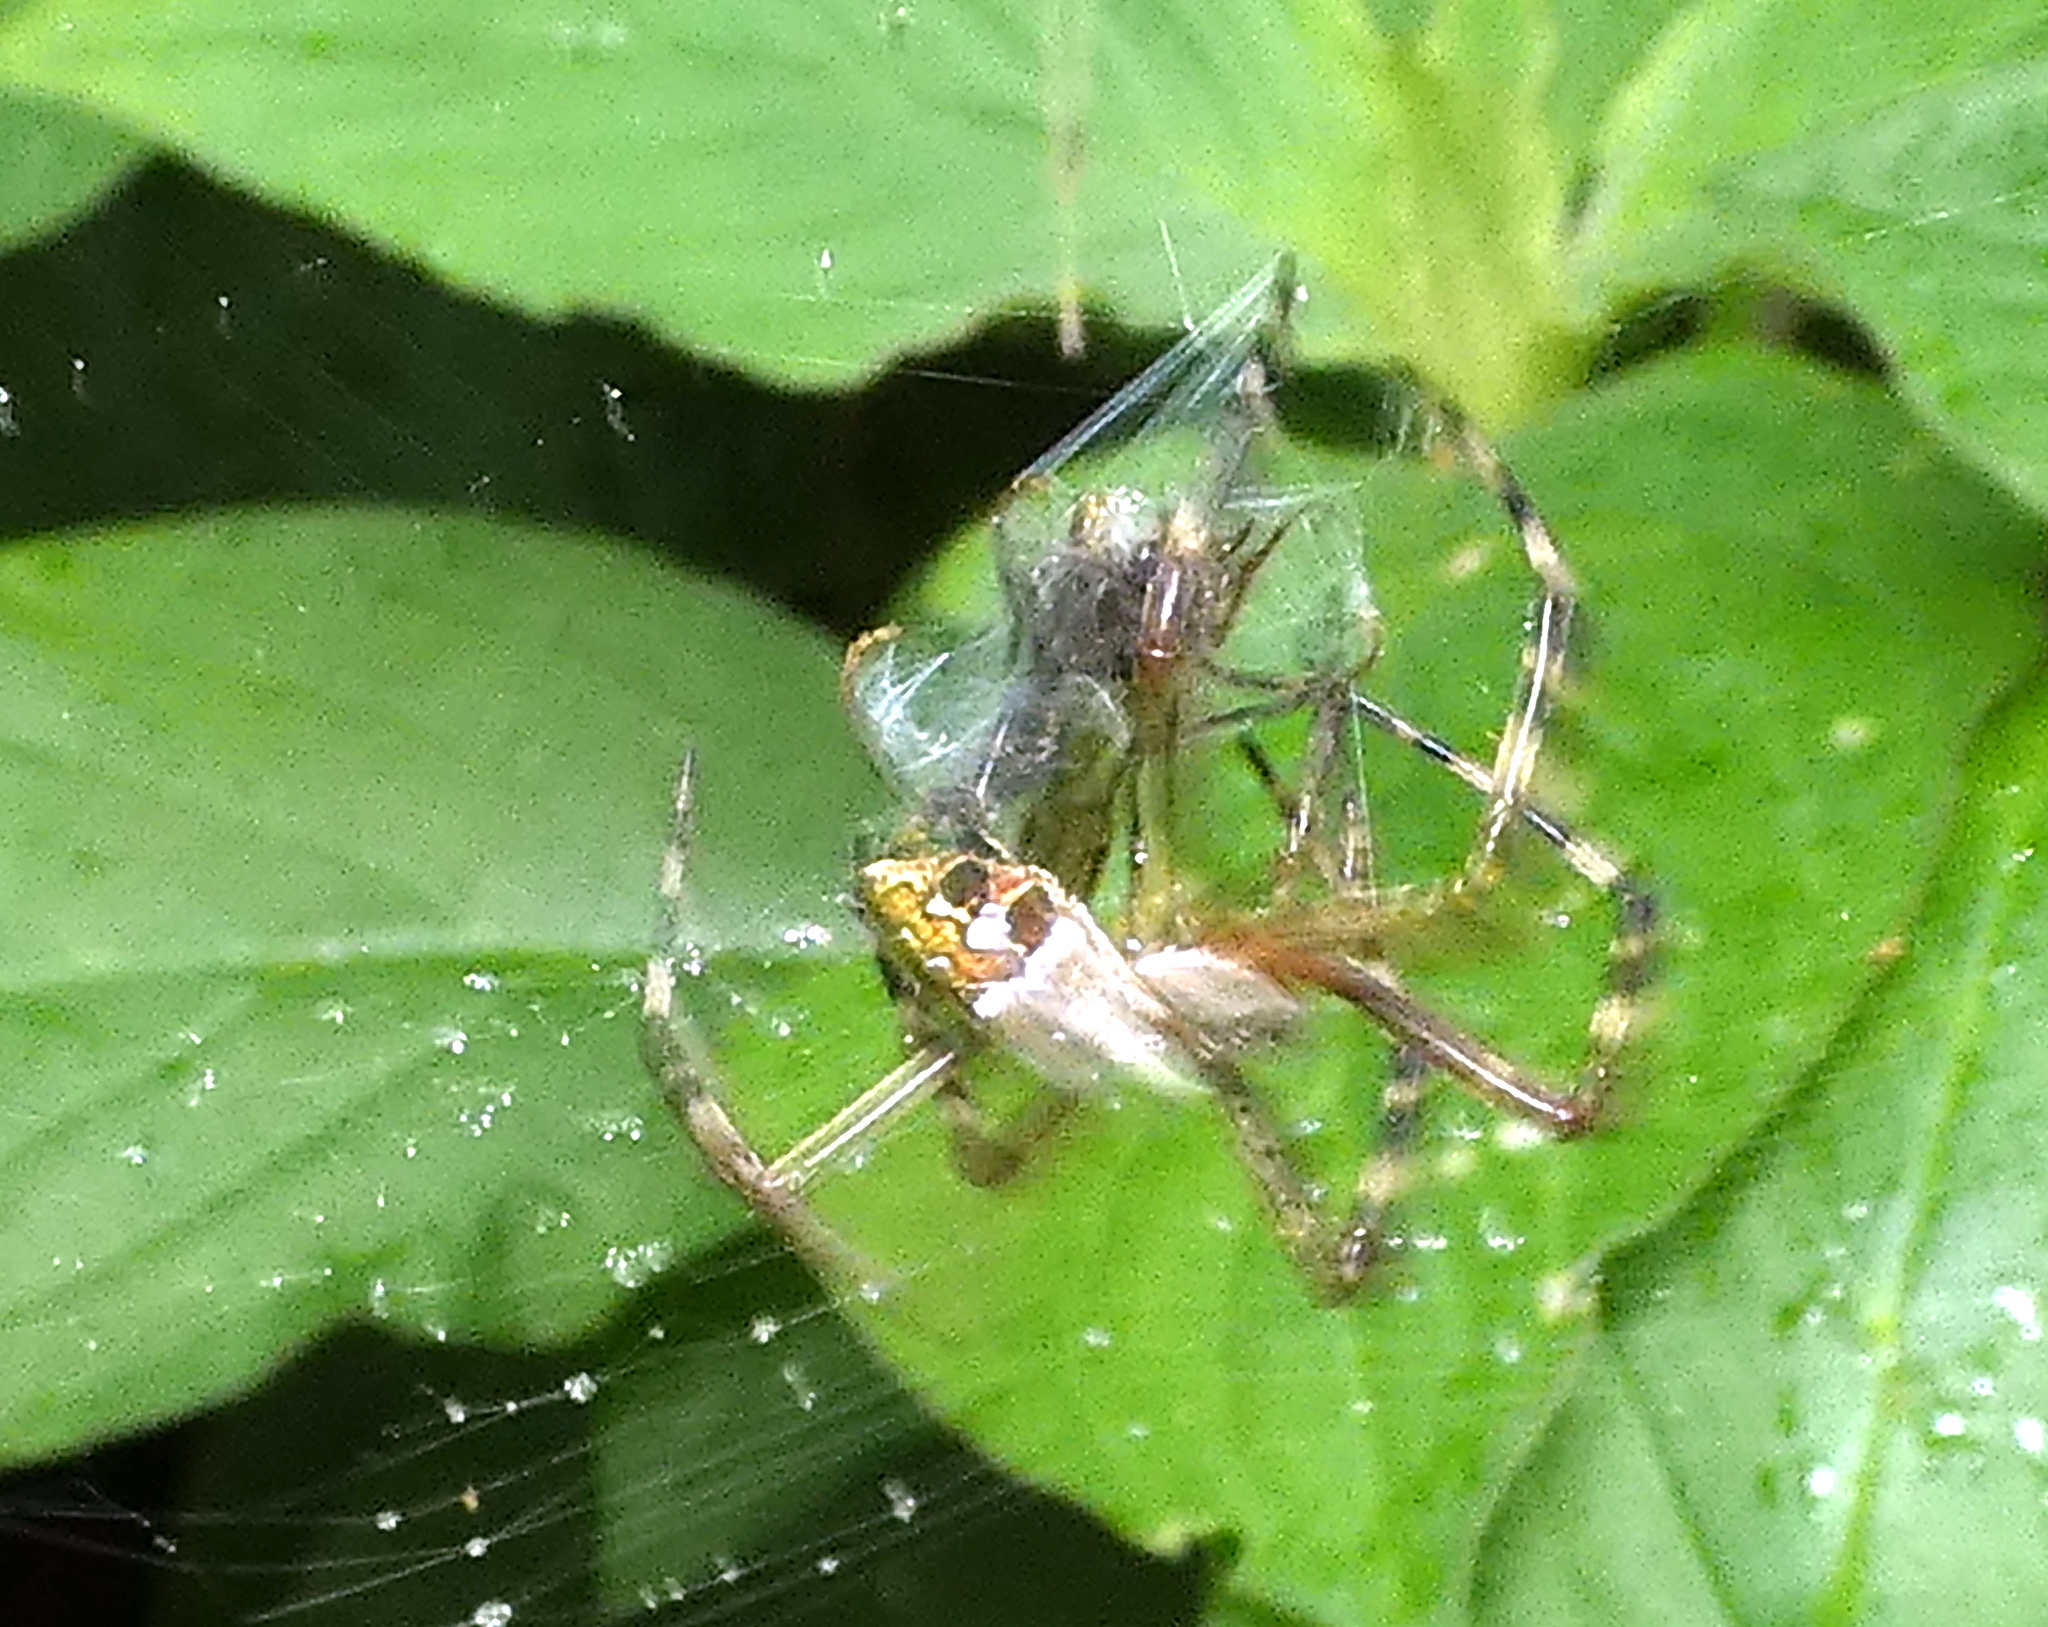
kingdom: Animalia
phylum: Arthropoda
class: Arachnida
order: Araneae
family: Araneidae
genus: Argiope
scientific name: Argiope argentata
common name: Orb weavers
